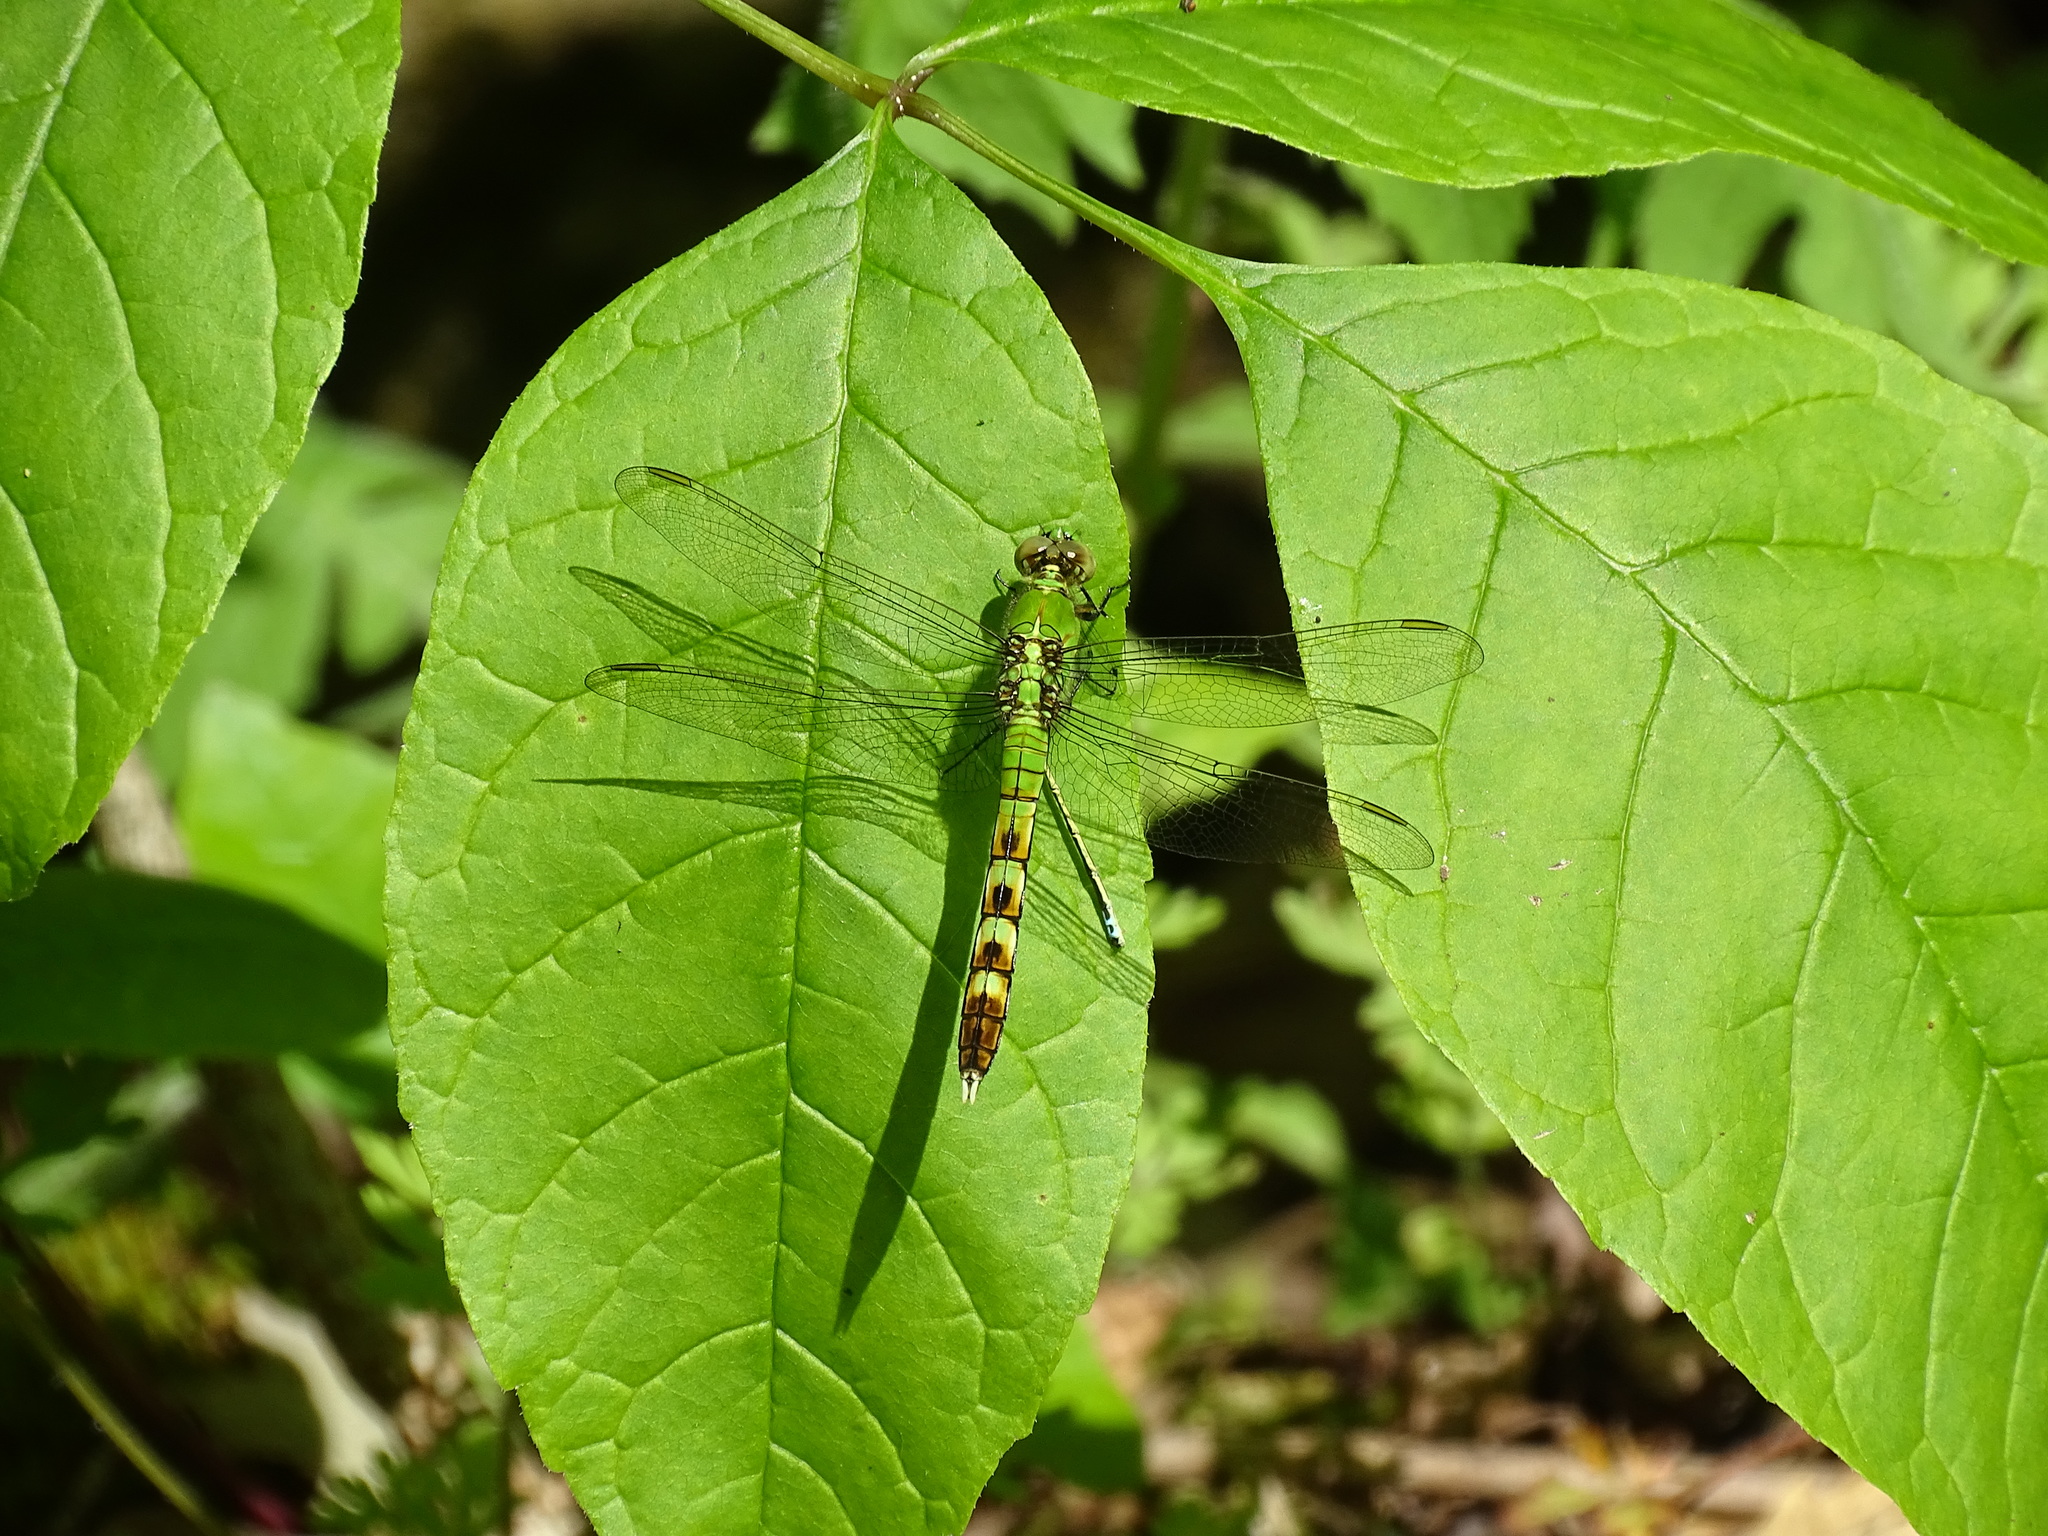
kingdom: Animalia
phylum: Arthropoda
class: Insecta
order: Odonata
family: Libellulidae
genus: Erythemis
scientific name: Erythemis simplicicollis
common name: Eastern pondhawk
